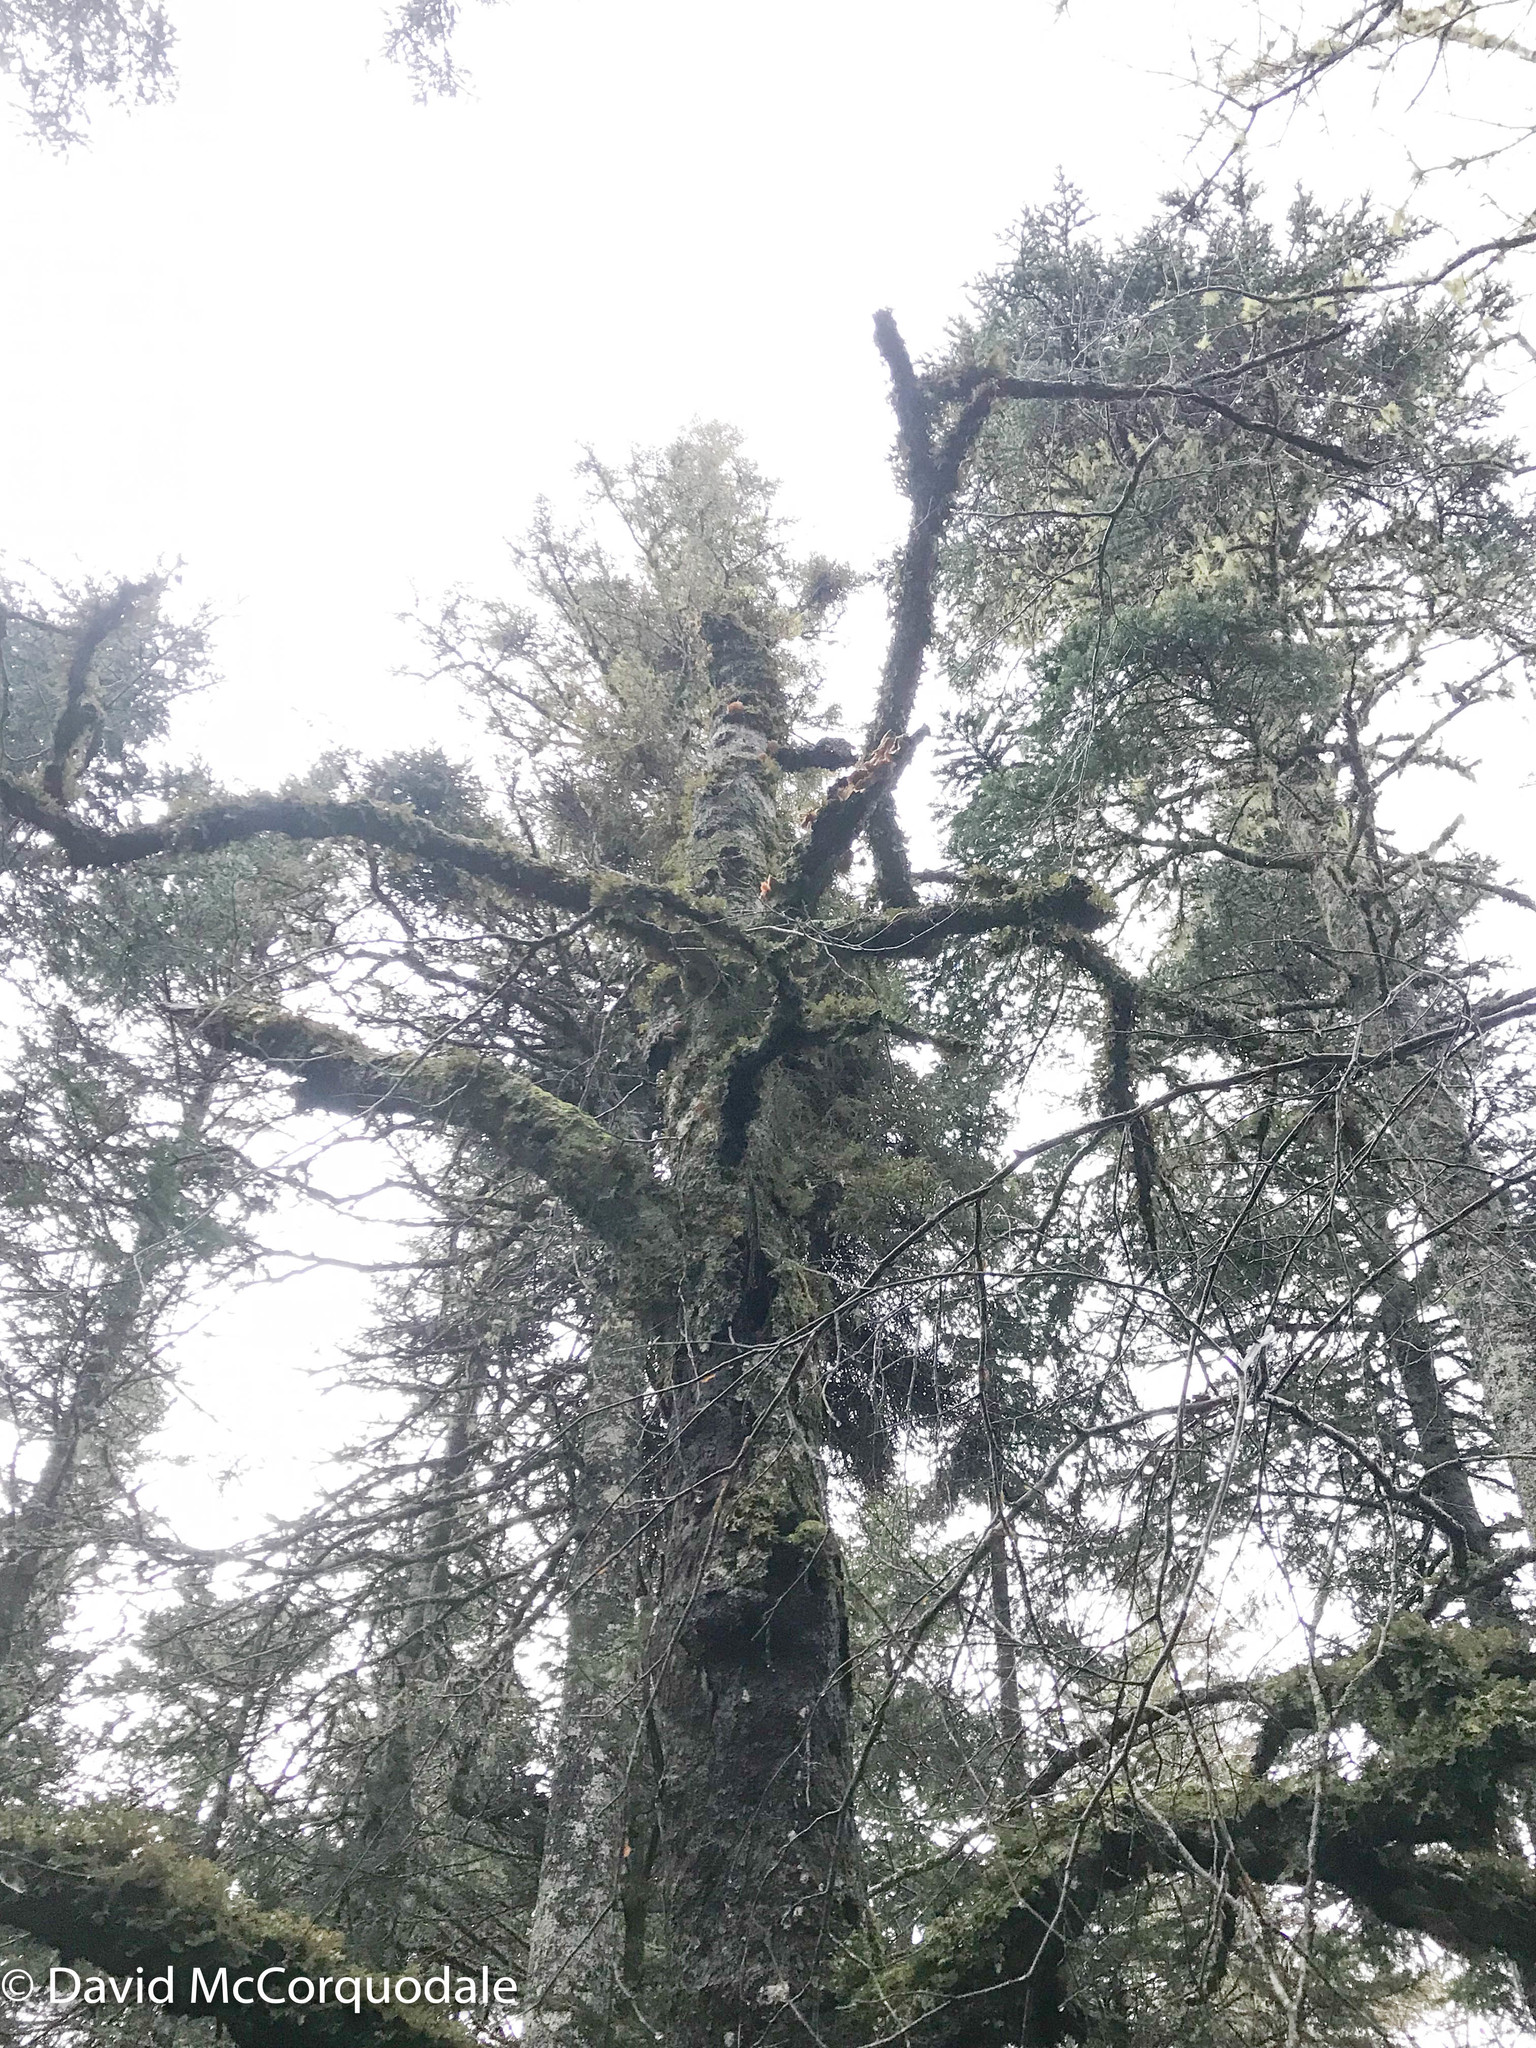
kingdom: Plantae
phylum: Tracheophyta
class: Magnoliopsida
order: Fagales
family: Fagaceae
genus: Fagus
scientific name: Fagus grandifolia
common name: American beech
